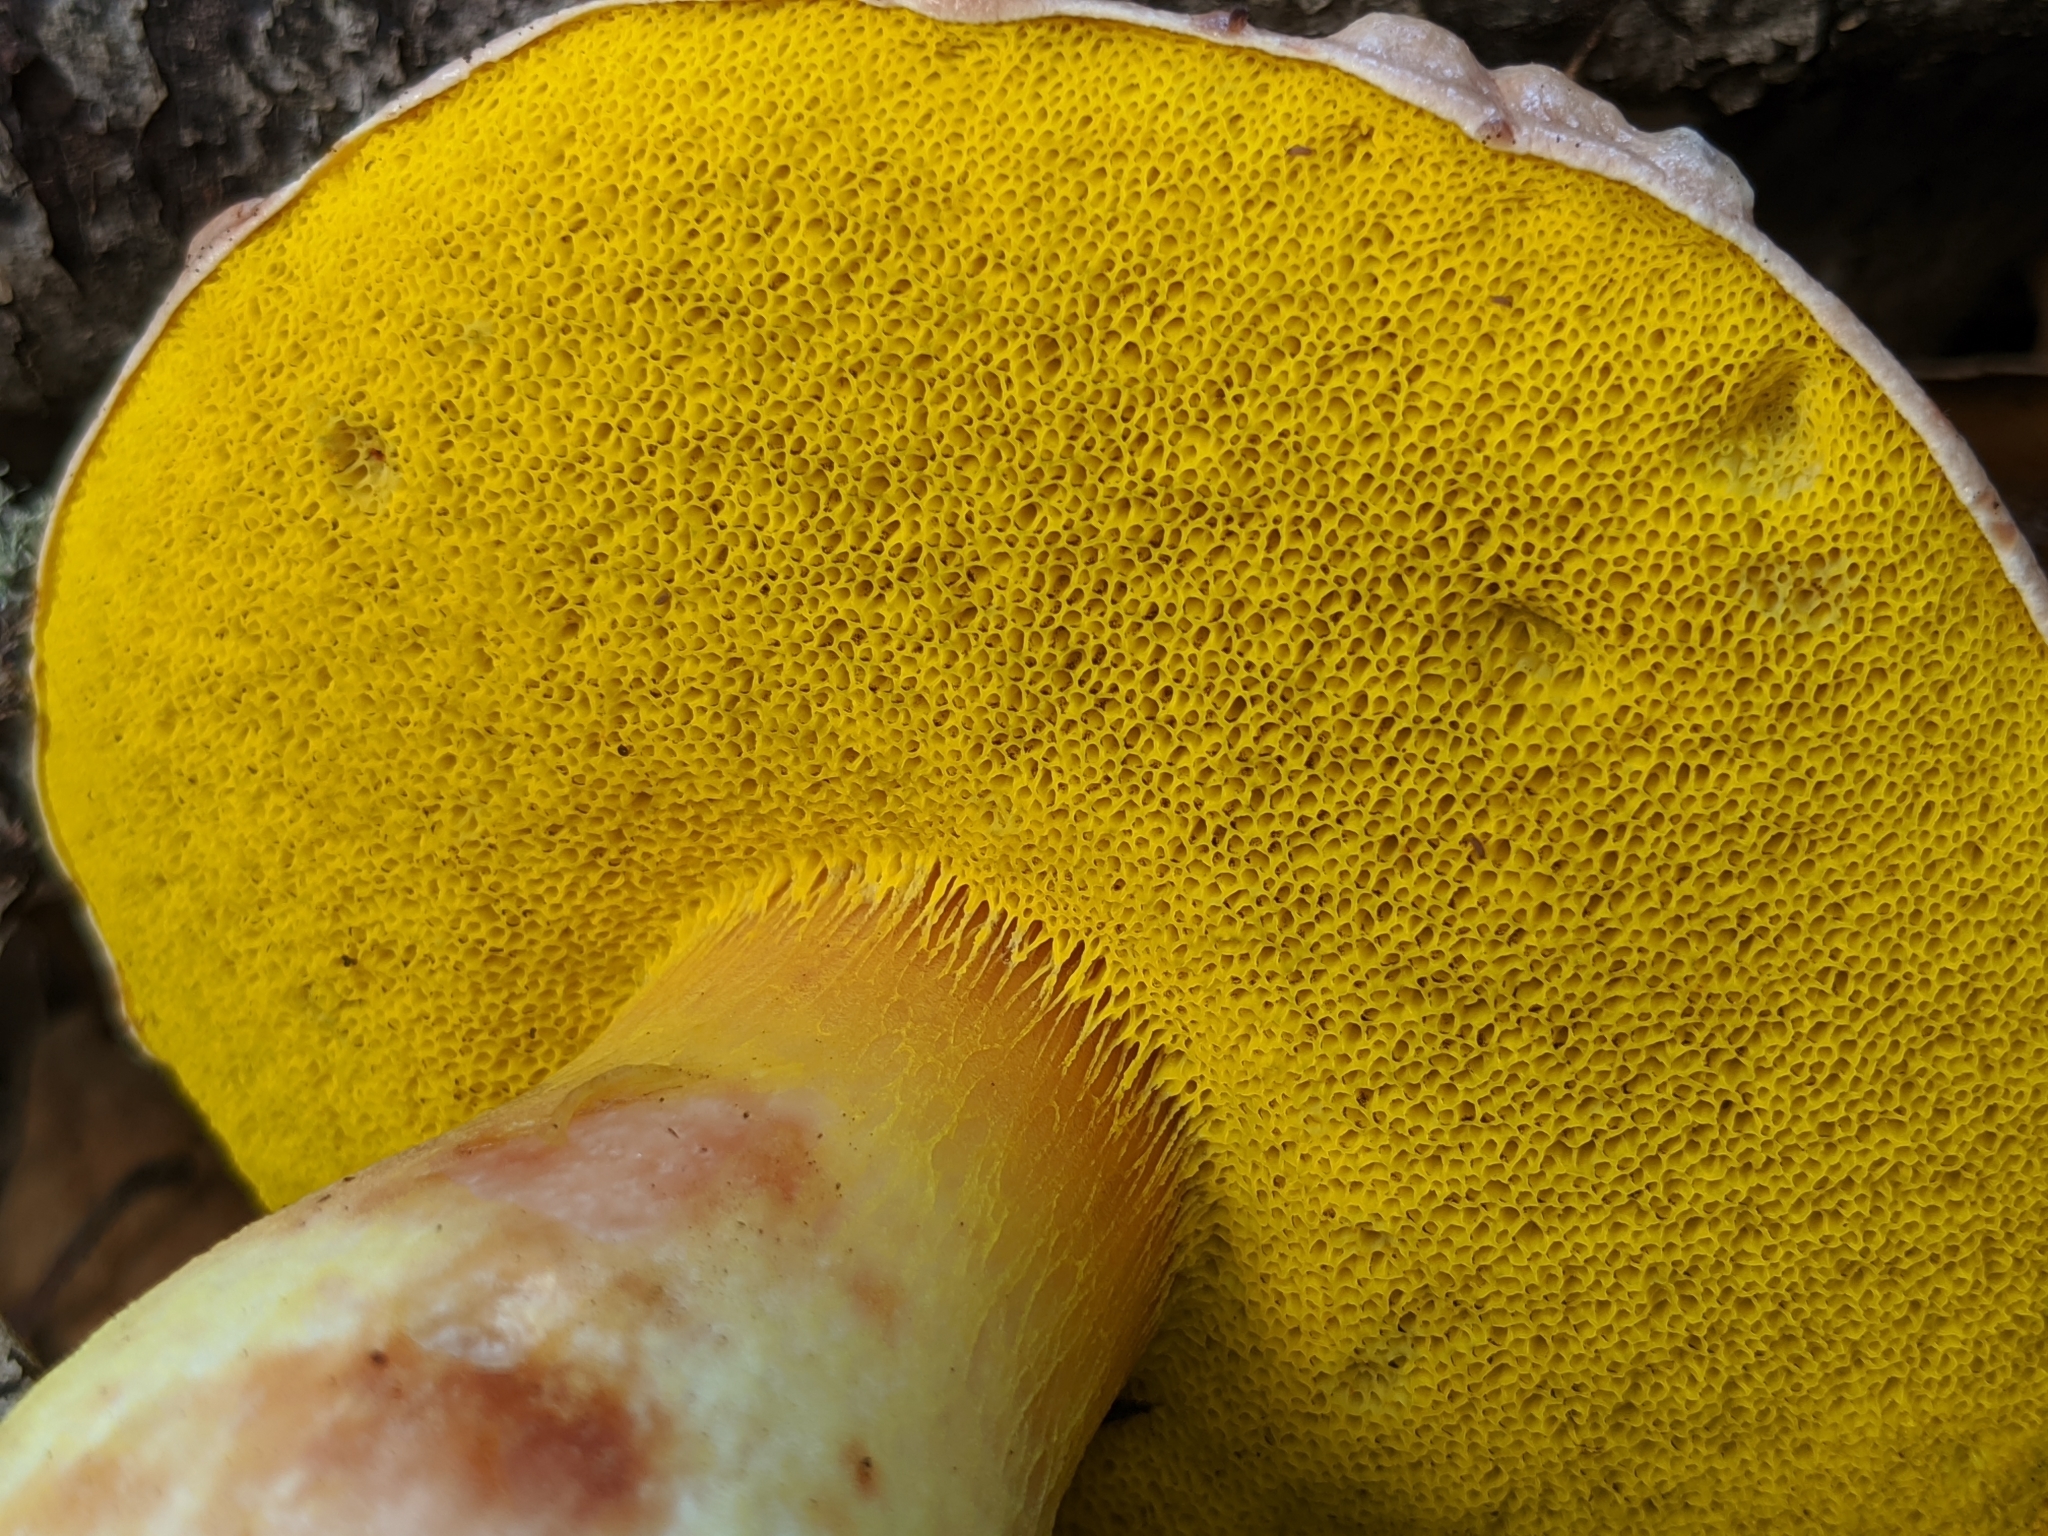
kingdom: Fungi
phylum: Basidiomycota
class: Agaricomycetes
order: Boletales
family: Boletaceae
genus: Aureoboletus
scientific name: Aureoboletus flaviporus
